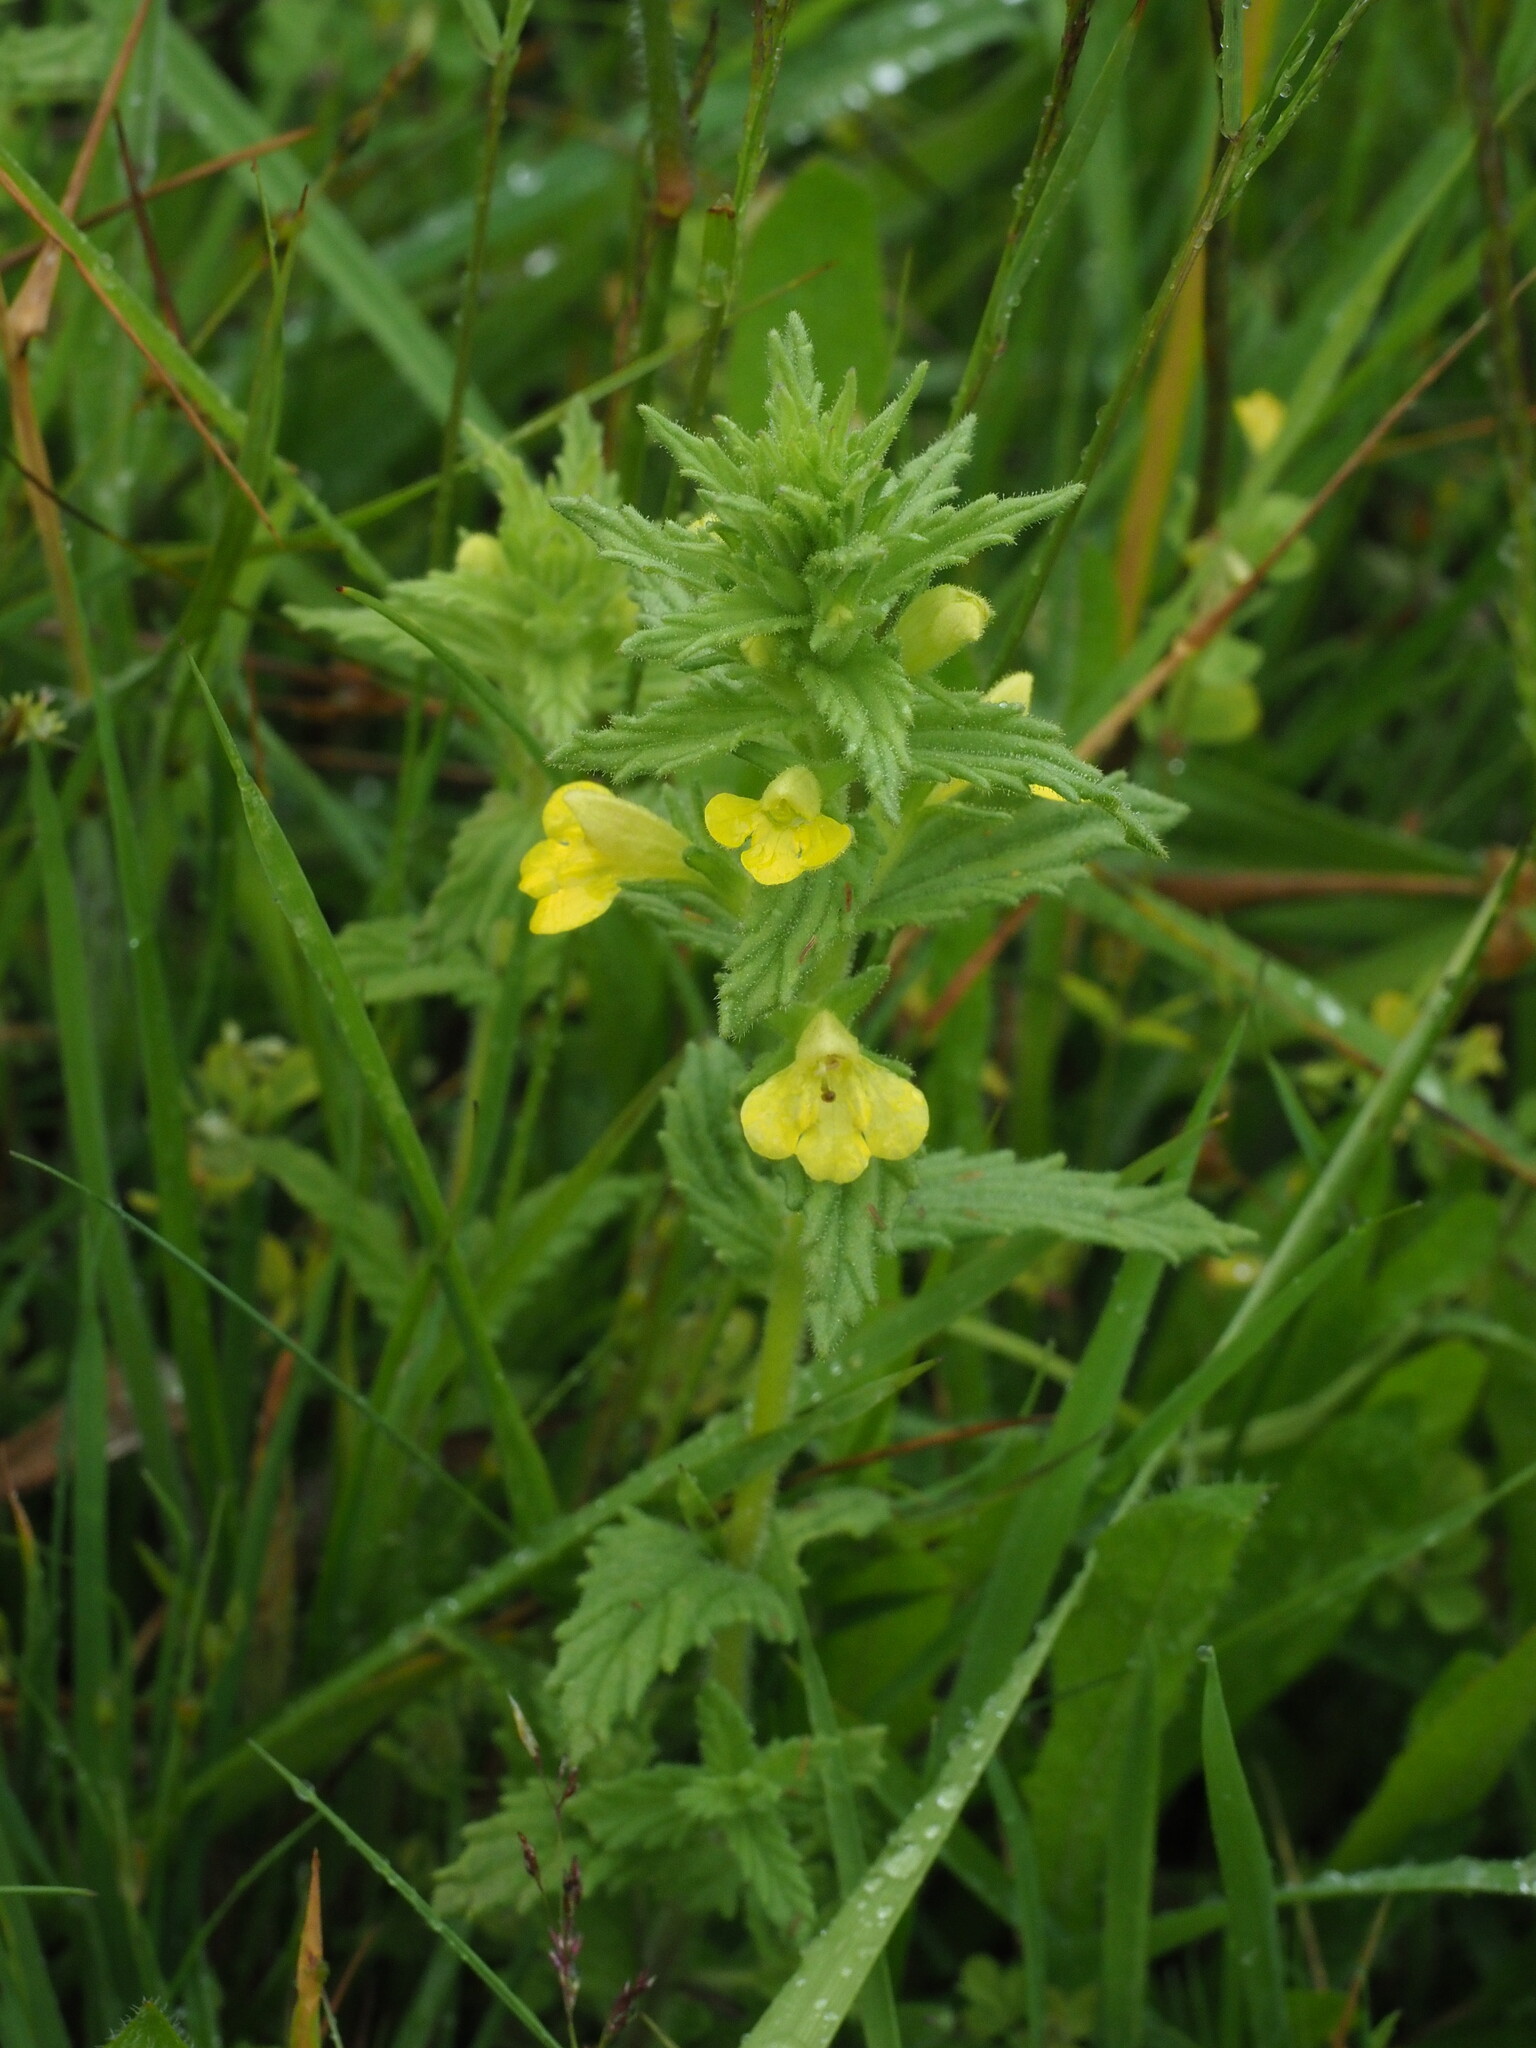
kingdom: Plantae
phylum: Tracheophyta
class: Magnoliopsida
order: Lamiales
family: Orobanchaceae
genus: Bellardia
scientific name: Bellardia viscosa
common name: Sticky parentucellia
